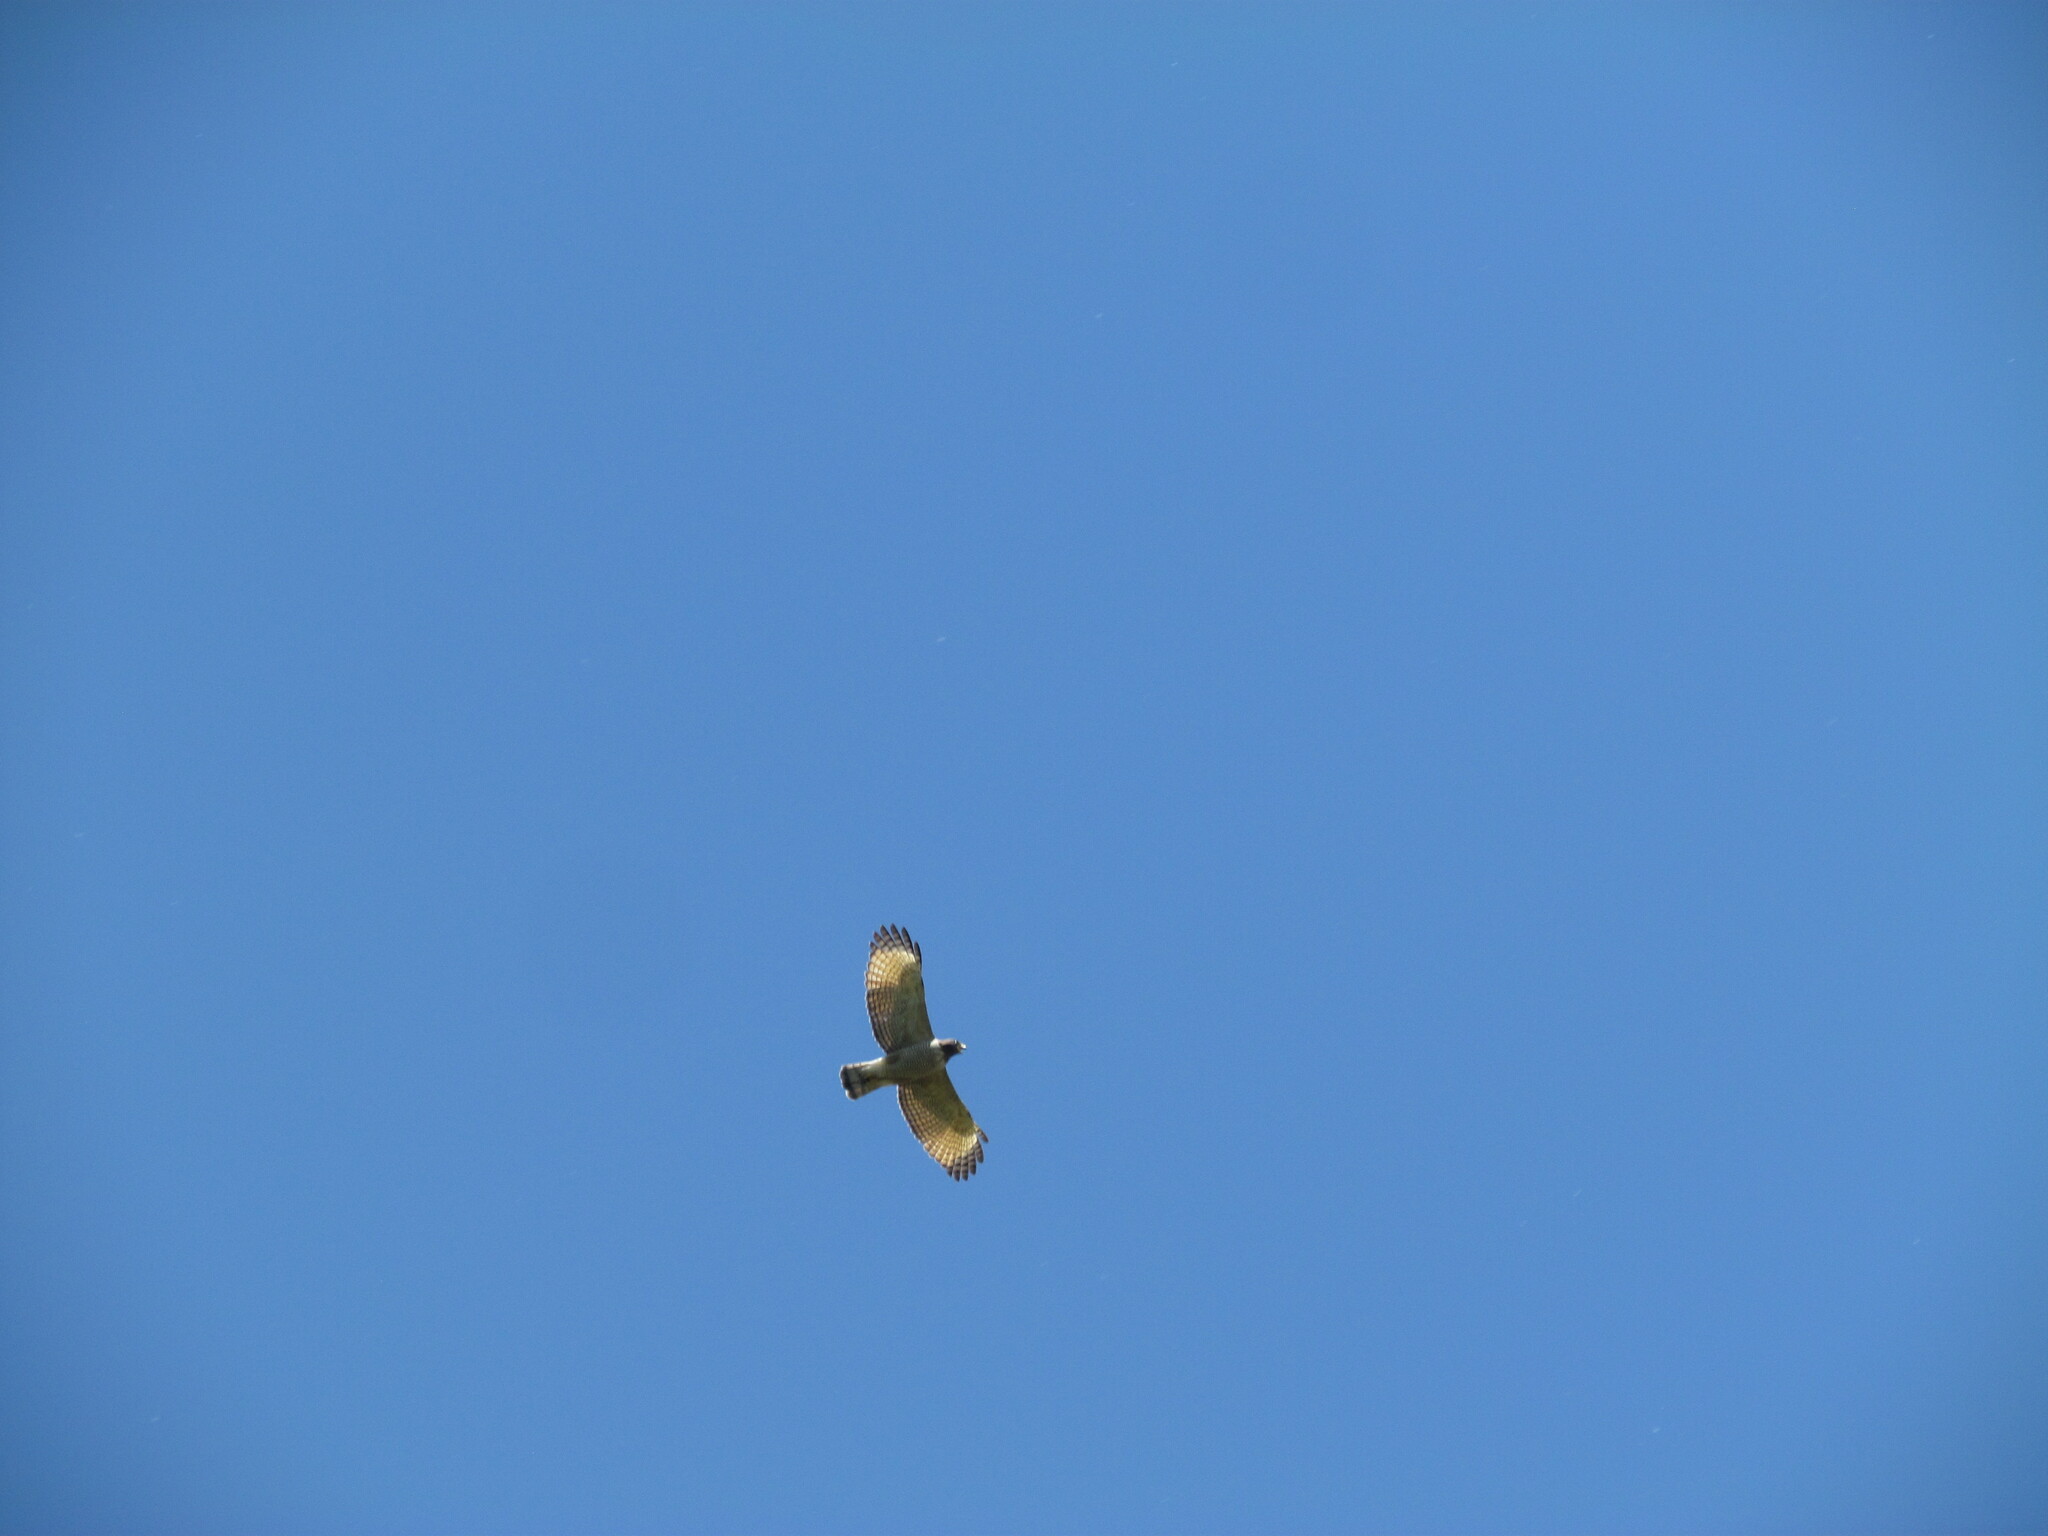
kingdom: Animalia
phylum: Chordata
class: Aves
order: Accipitriformes
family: Accipitridae
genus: Rupornis
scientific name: Rupornis magnirostris
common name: Roadside hawk
